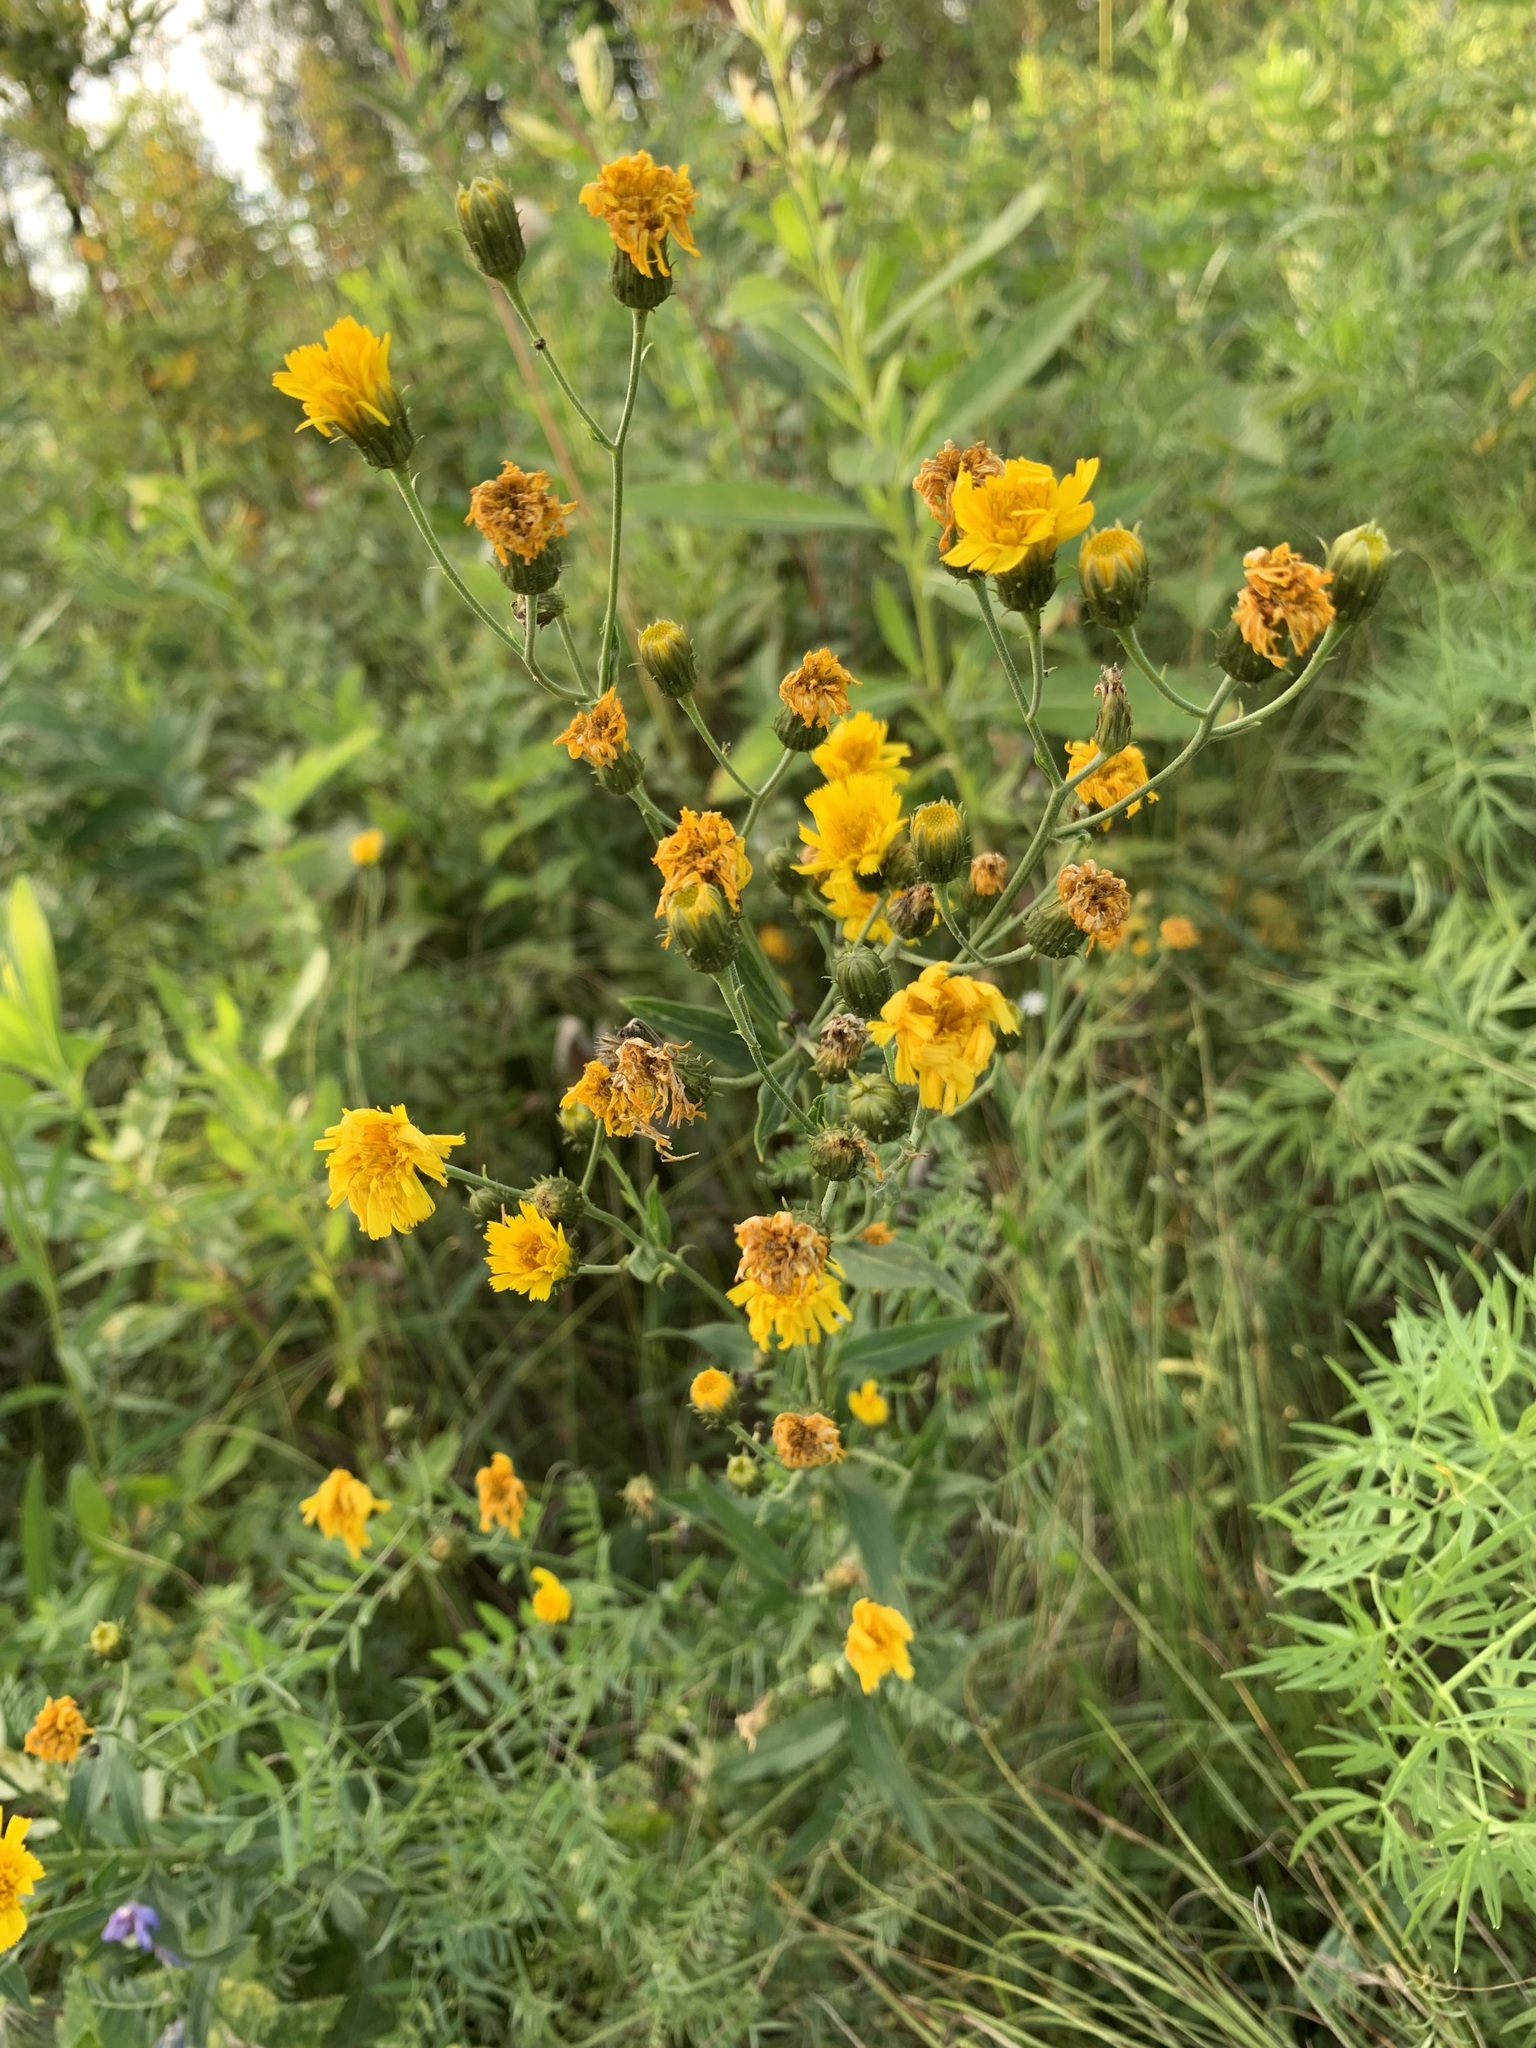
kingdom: Plantae
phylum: Tracheophyta
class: Magnoliopsida
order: Asterales
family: Asteraceae
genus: Hieracium
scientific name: Hieracium umbellatum
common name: Northern hawkweed
